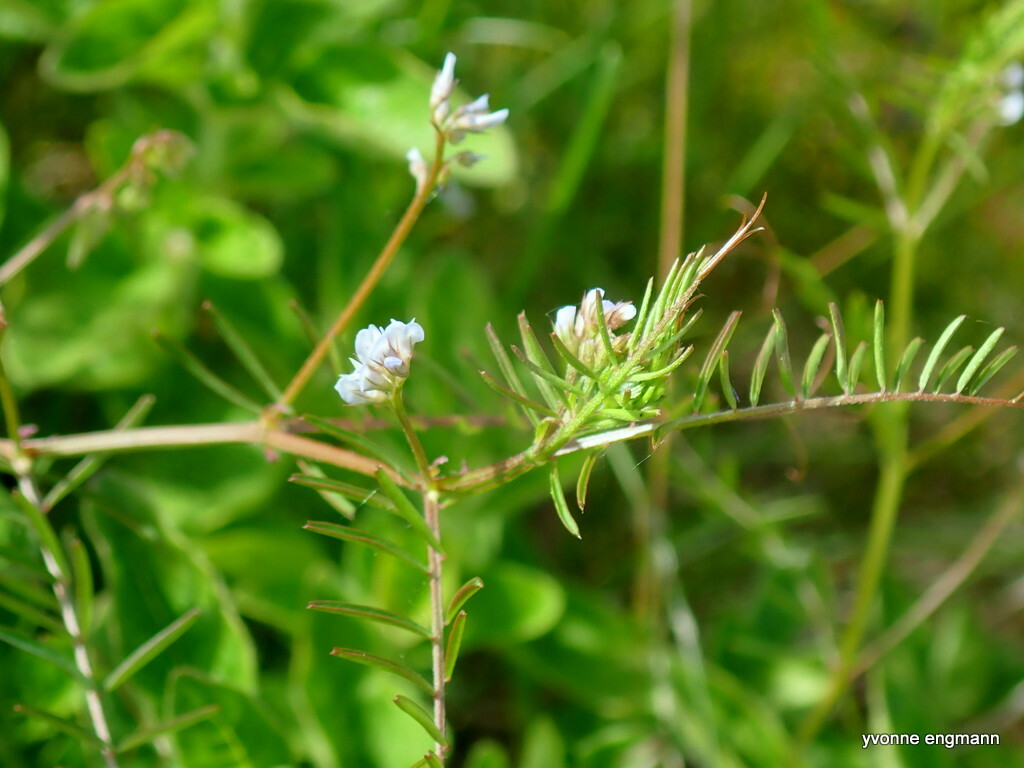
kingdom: Plantae
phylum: Tracheophyta
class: Magnoliopsida
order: Fabales
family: Fabaceae
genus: Vicia
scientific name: Vicia hirsuta
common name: Tiny vetch
